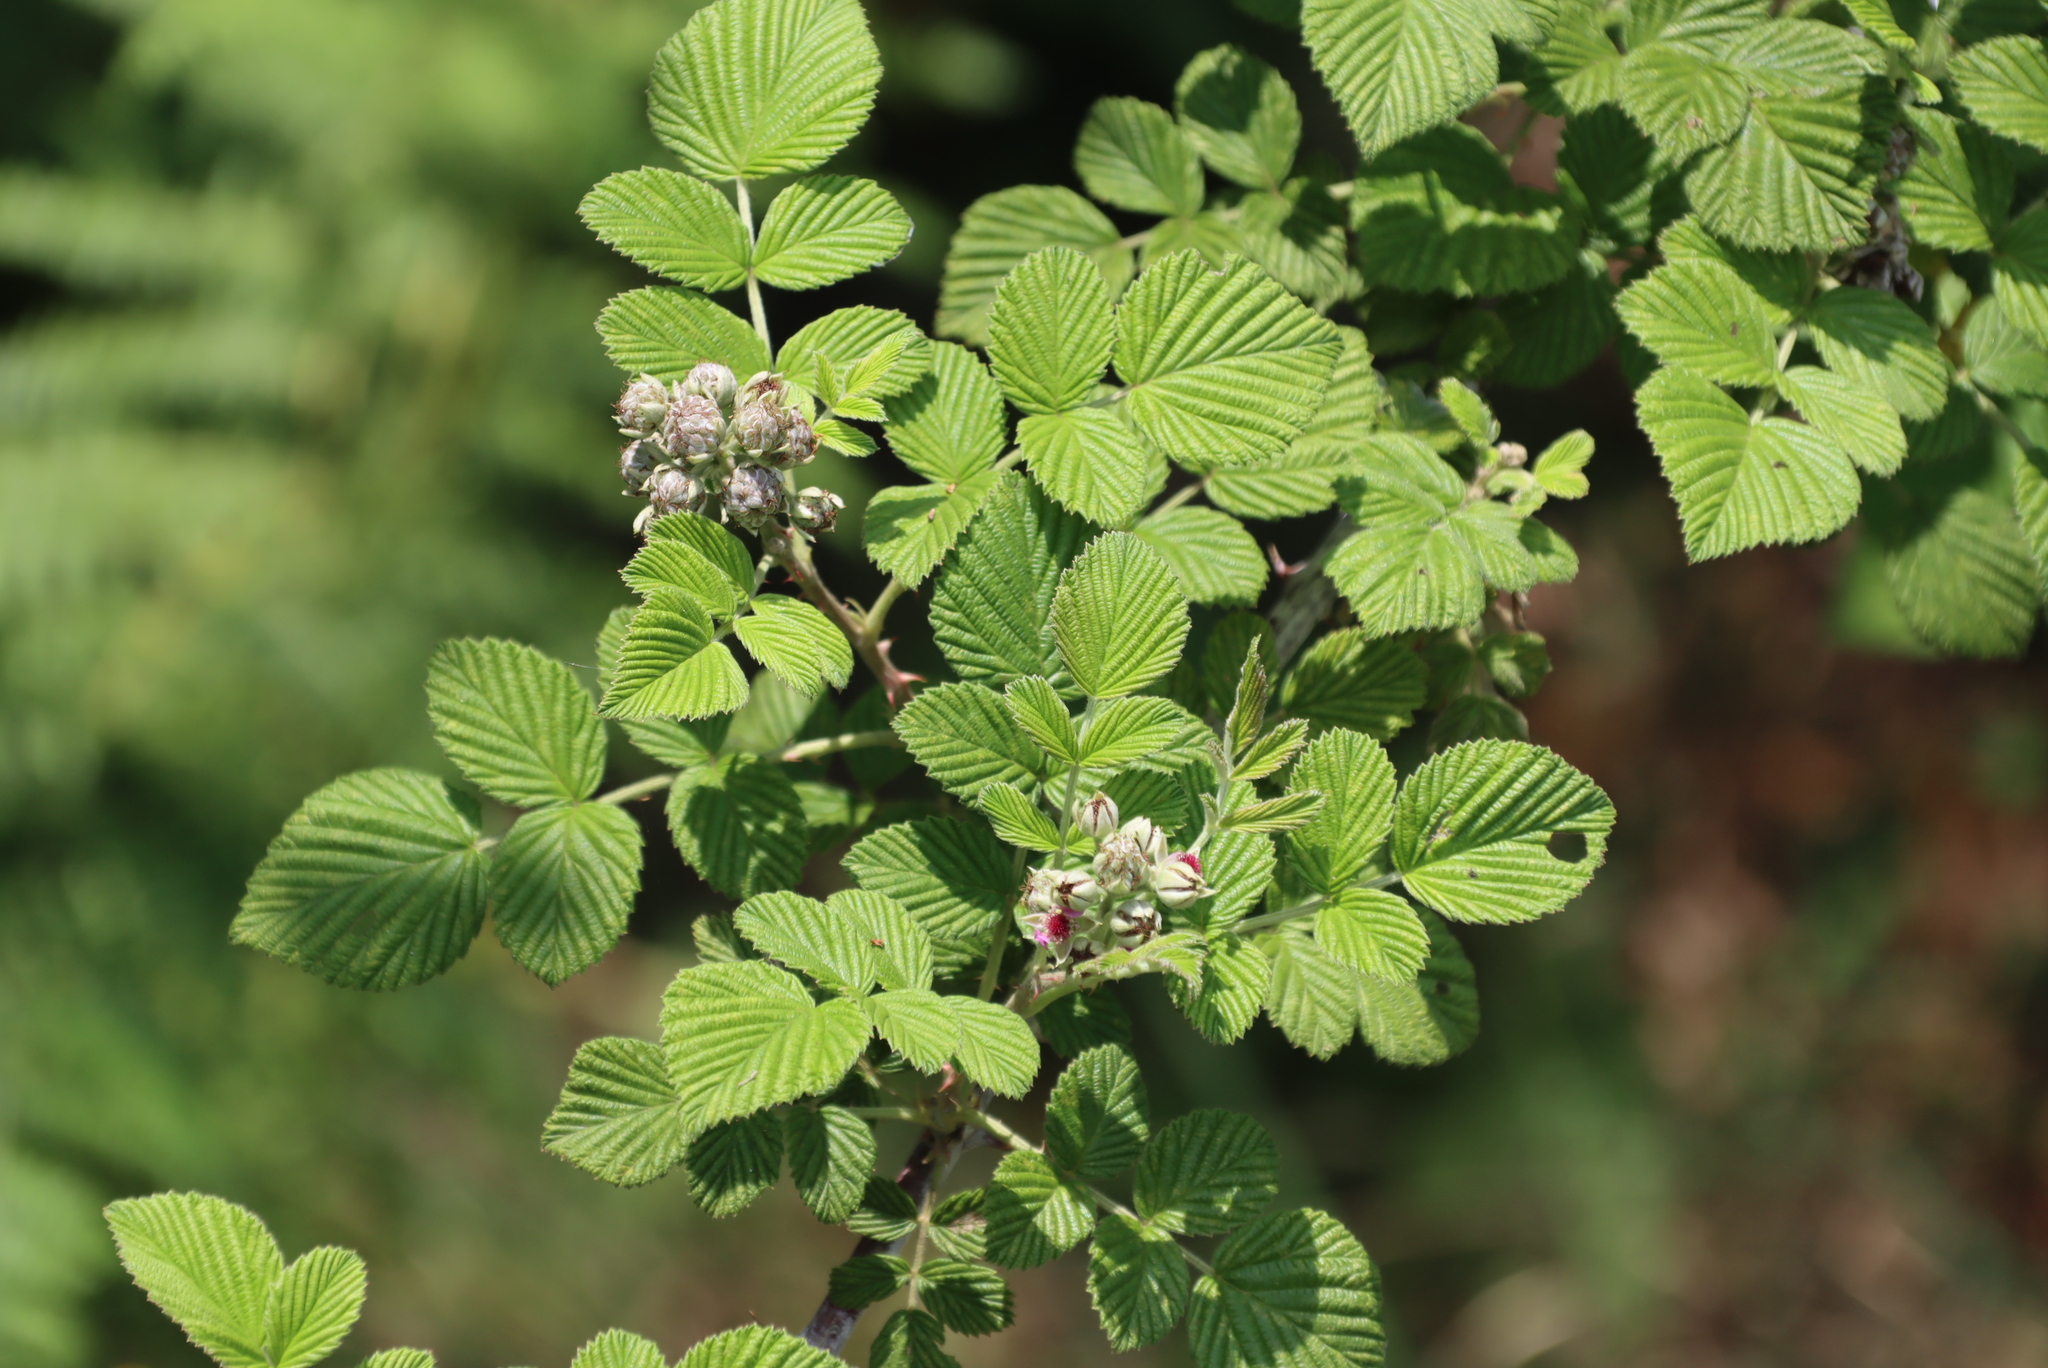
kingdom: Plantae
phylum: Tracheophyta
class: Magnoliopsida
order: Rosales
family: Rosaceae
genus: Rubus
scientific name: Rubus niveus
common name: Snowpeaks raspberry
